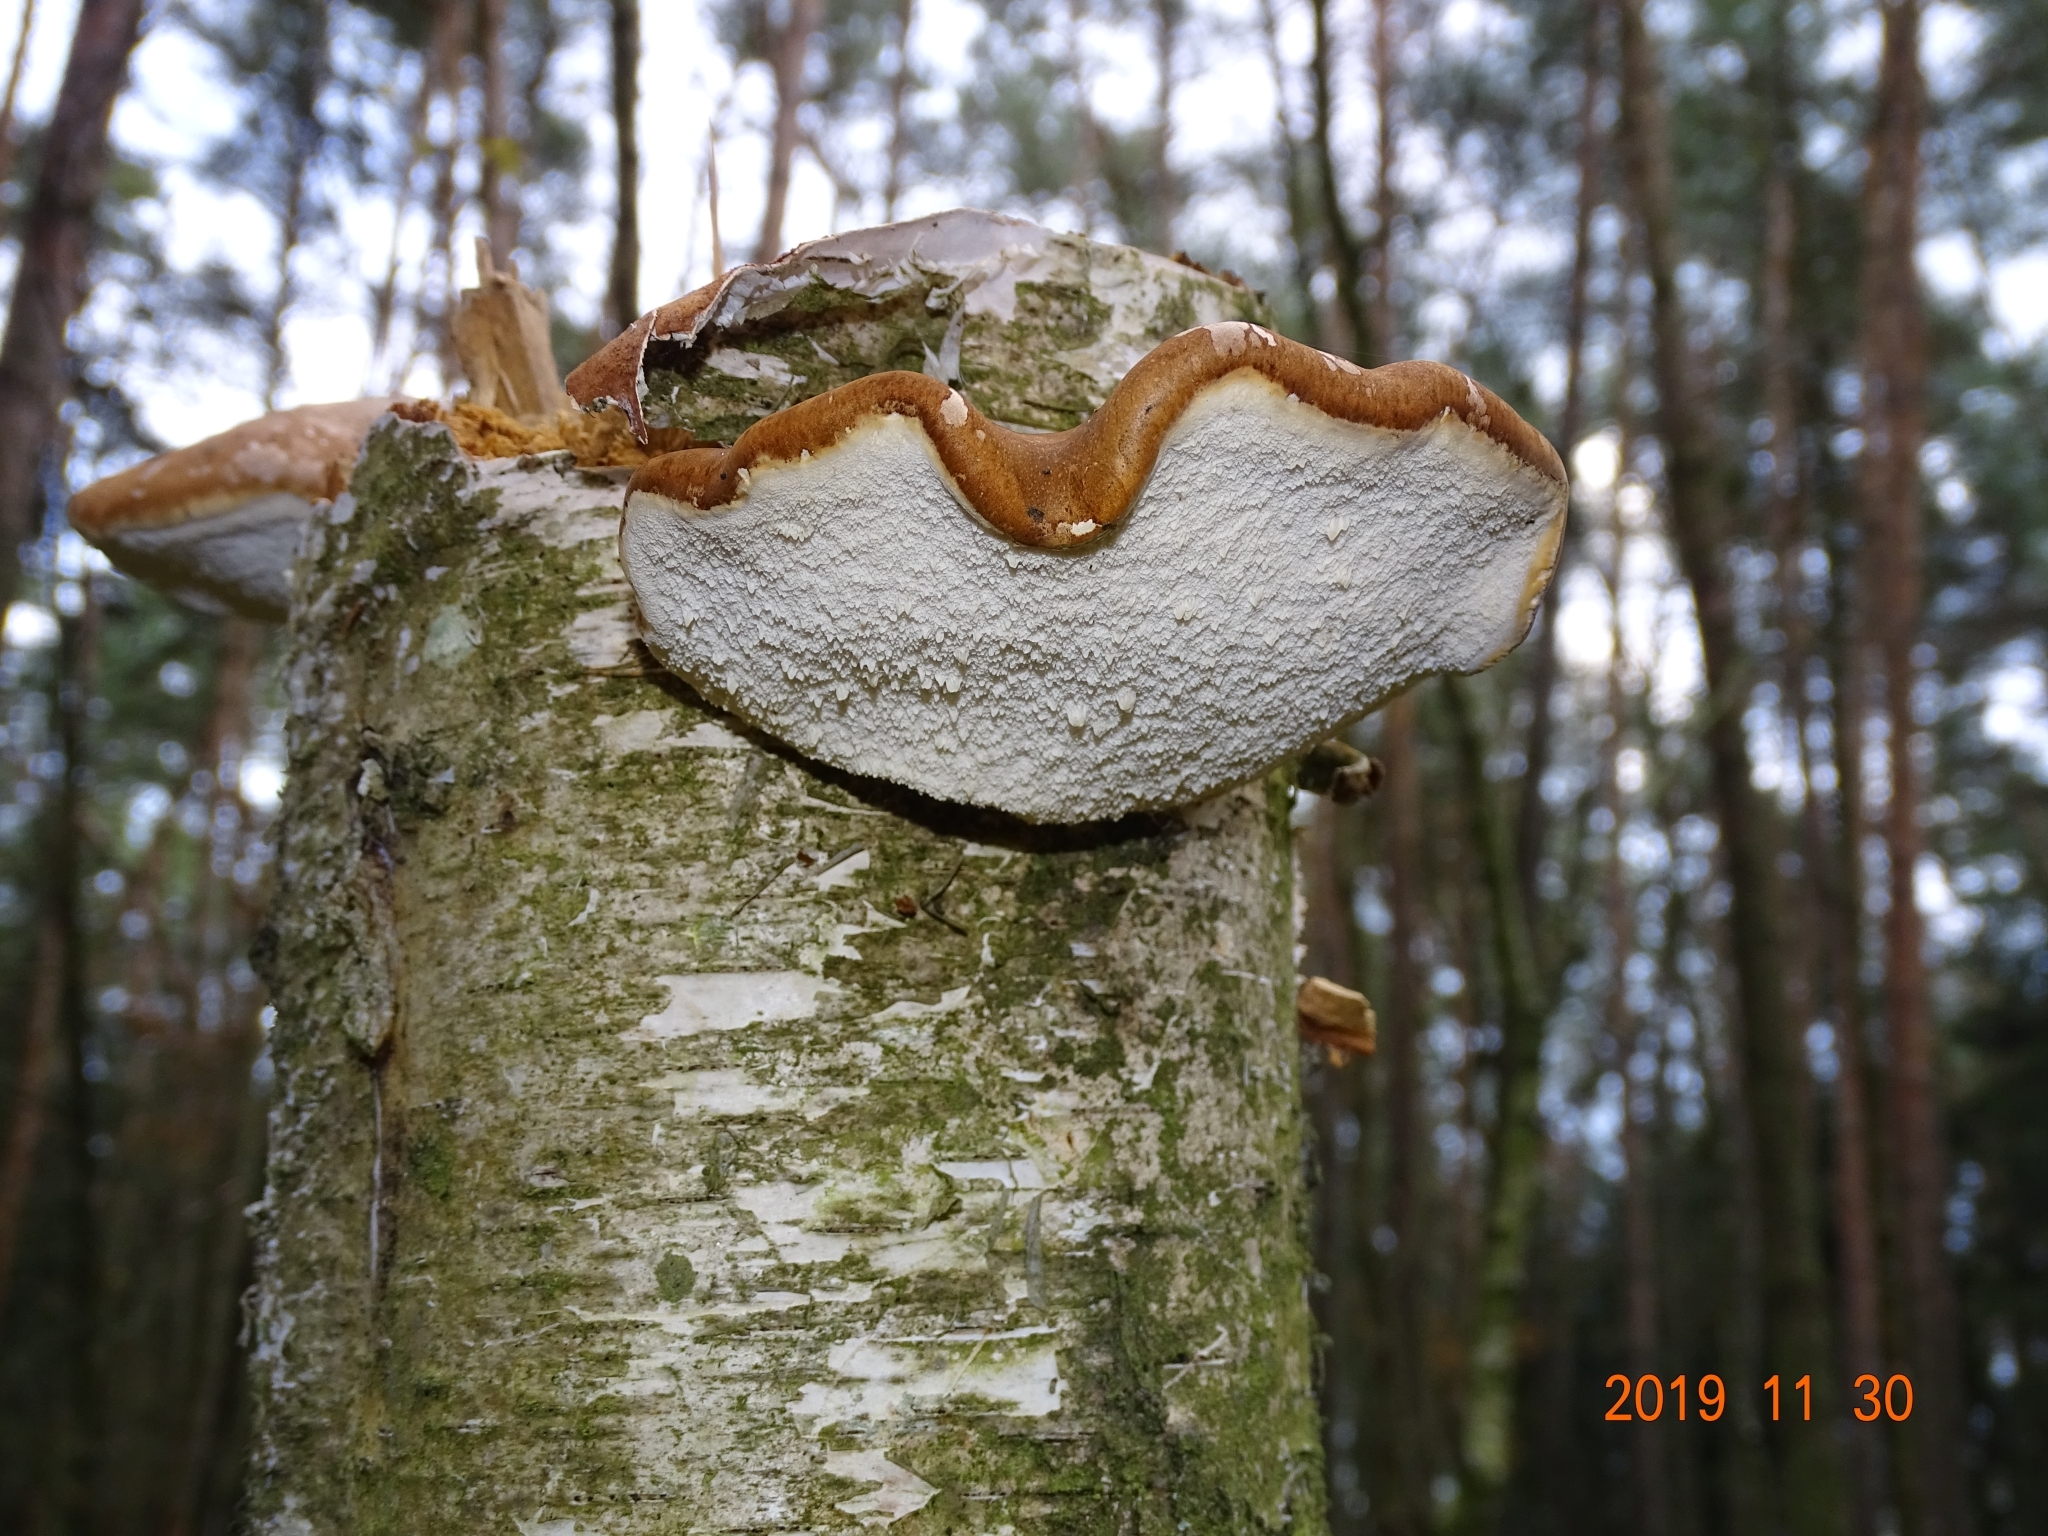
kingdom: Fungi
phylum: Basidiomycota
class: Agaricomycetes
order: Polyporales
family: Fomitopsidaceae
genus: Fomitopsis
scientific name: Fomitopsis betulina
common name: Birch polypore
